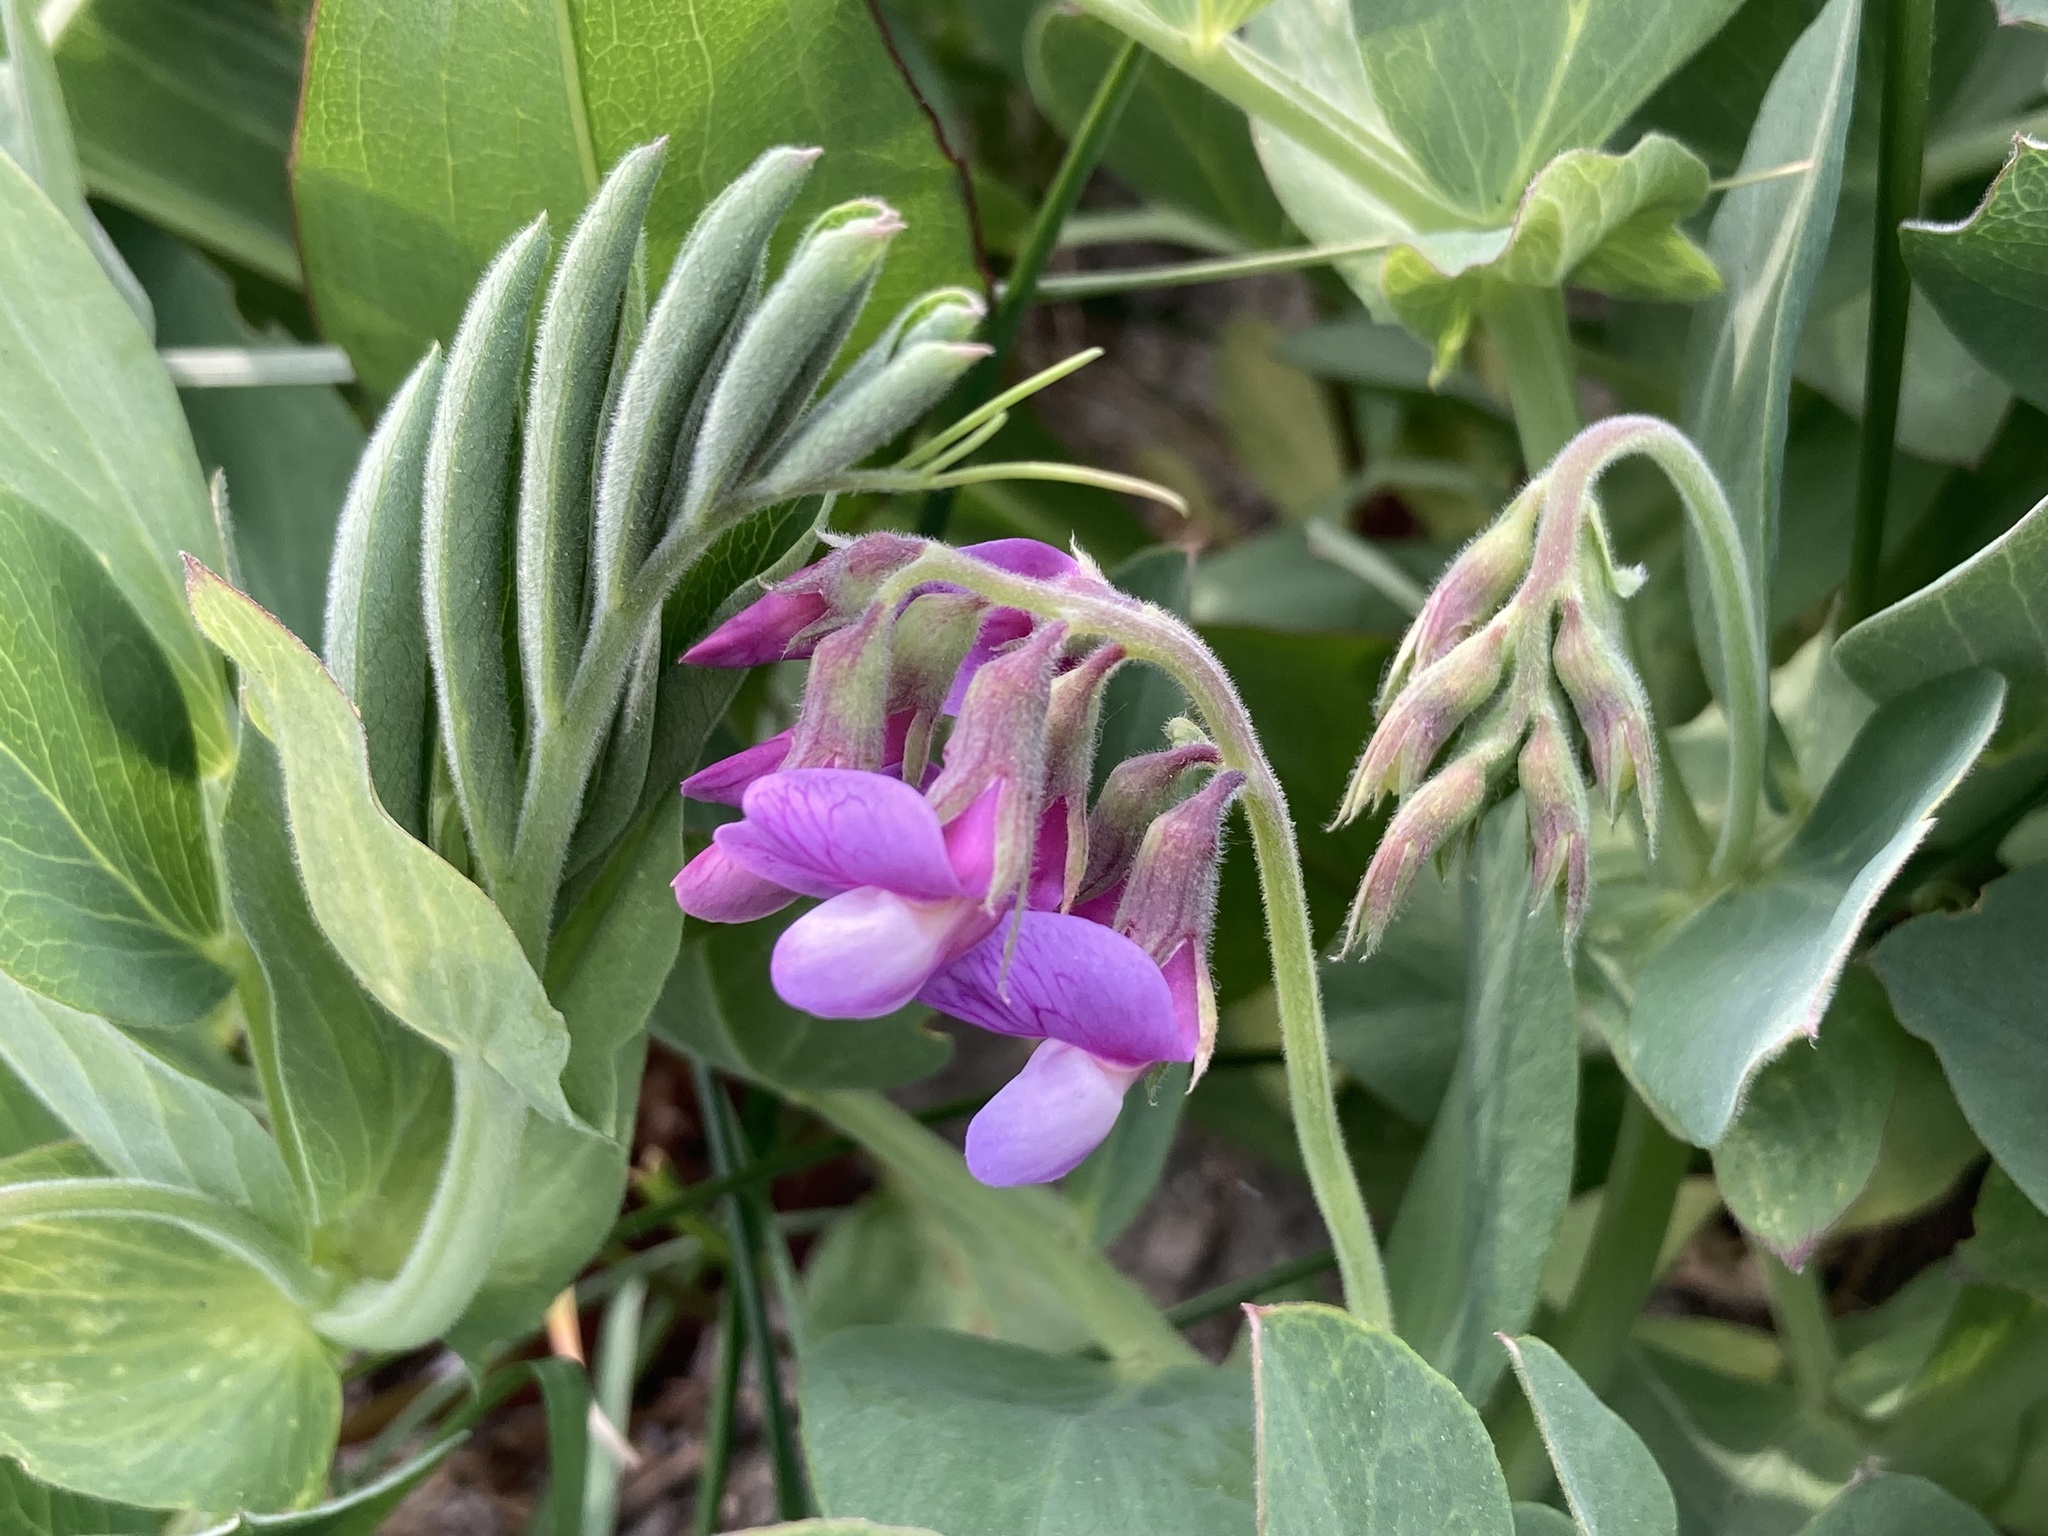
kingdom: Plantae
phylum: Tracheophyta
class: Magnoliopsida
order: Fabales
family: Fabaceae
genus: Lathyrus
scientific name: Lathyrus japonicus
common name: Sea pea
